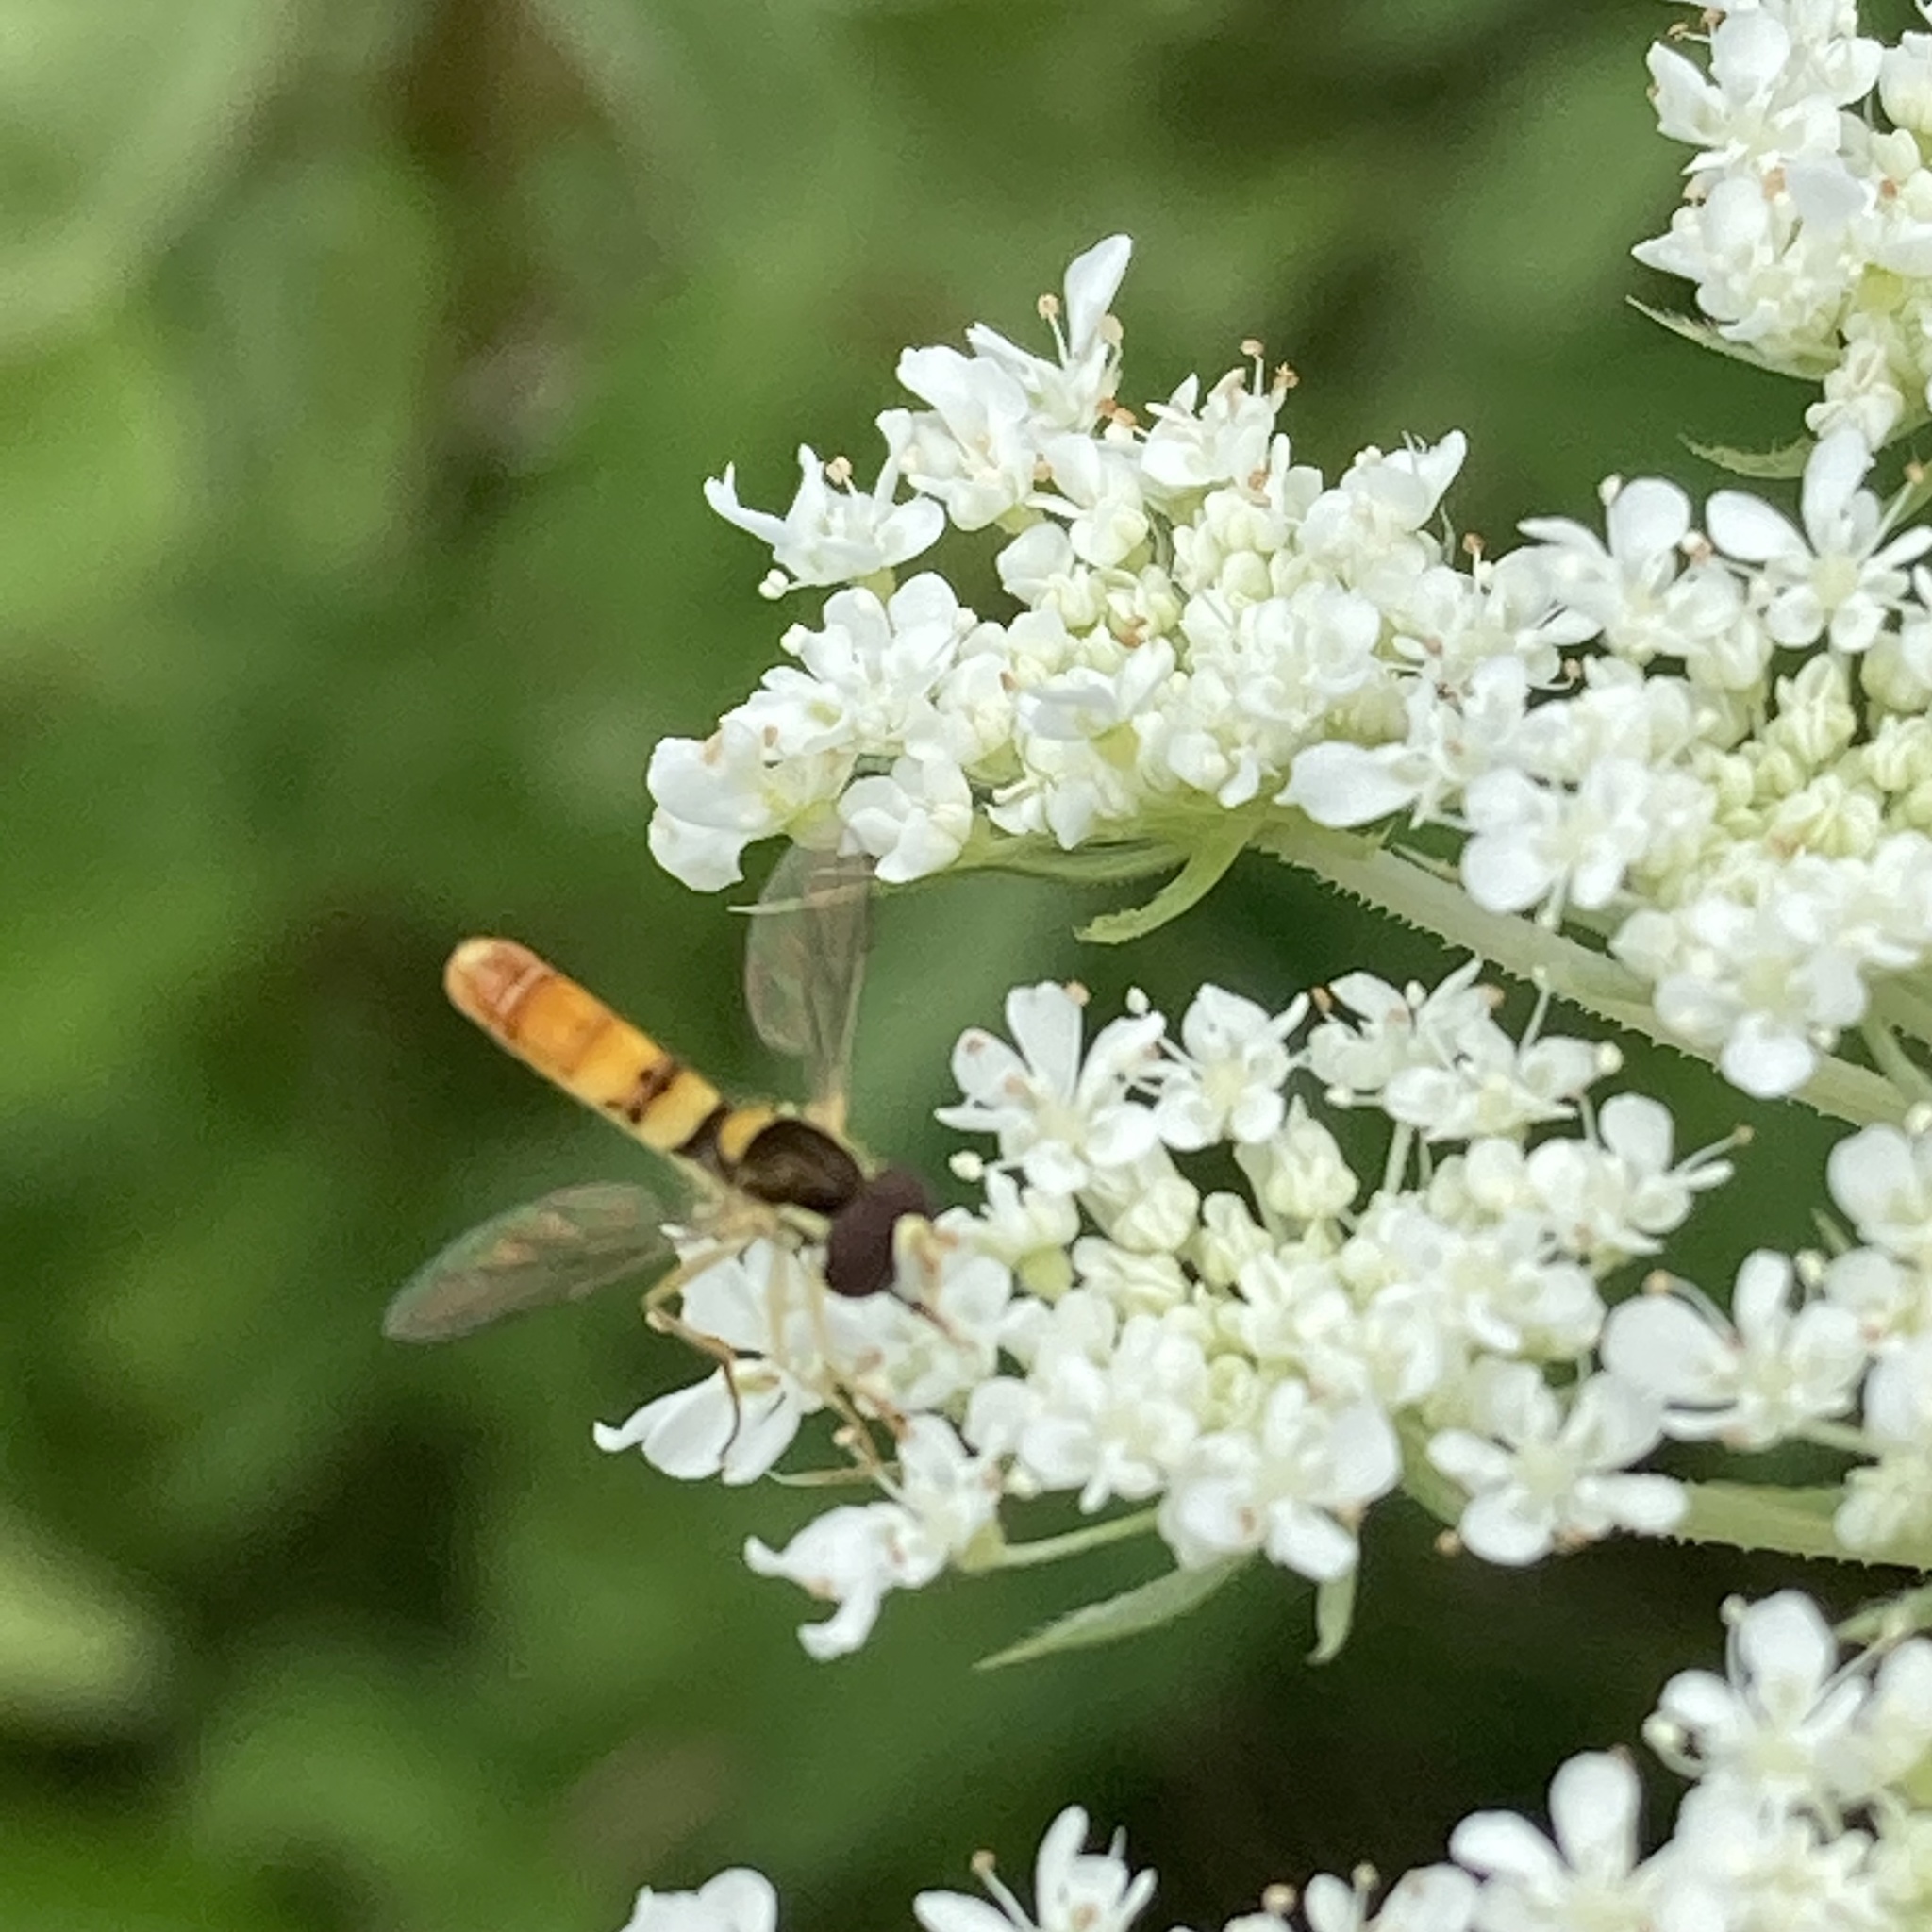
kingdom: Animalia
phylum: Arthropoda
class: Insecta
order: Diptera
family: Syrphidae
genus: Sphaerophoria
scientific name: Sphaerophoria contigua
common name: Tufted globetail
